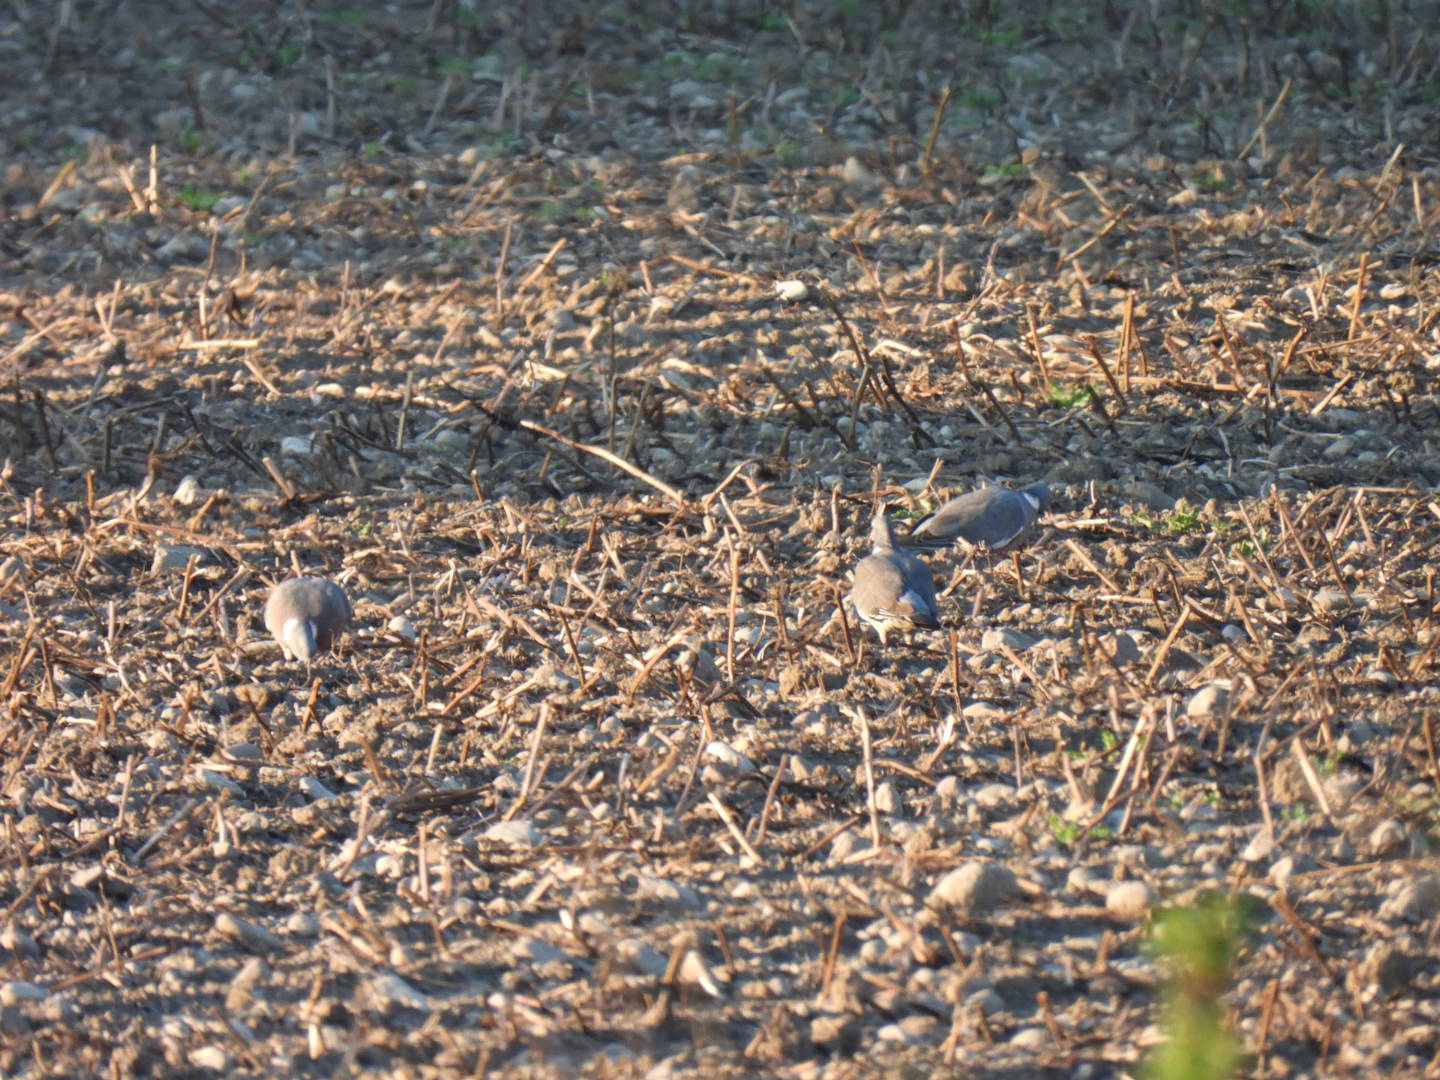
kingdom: Animalia
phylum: Chordata
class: Aves
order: Columbiformes
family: Columbidae
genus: Columba
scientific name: Columba palumbus
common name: Common wood pigeon
